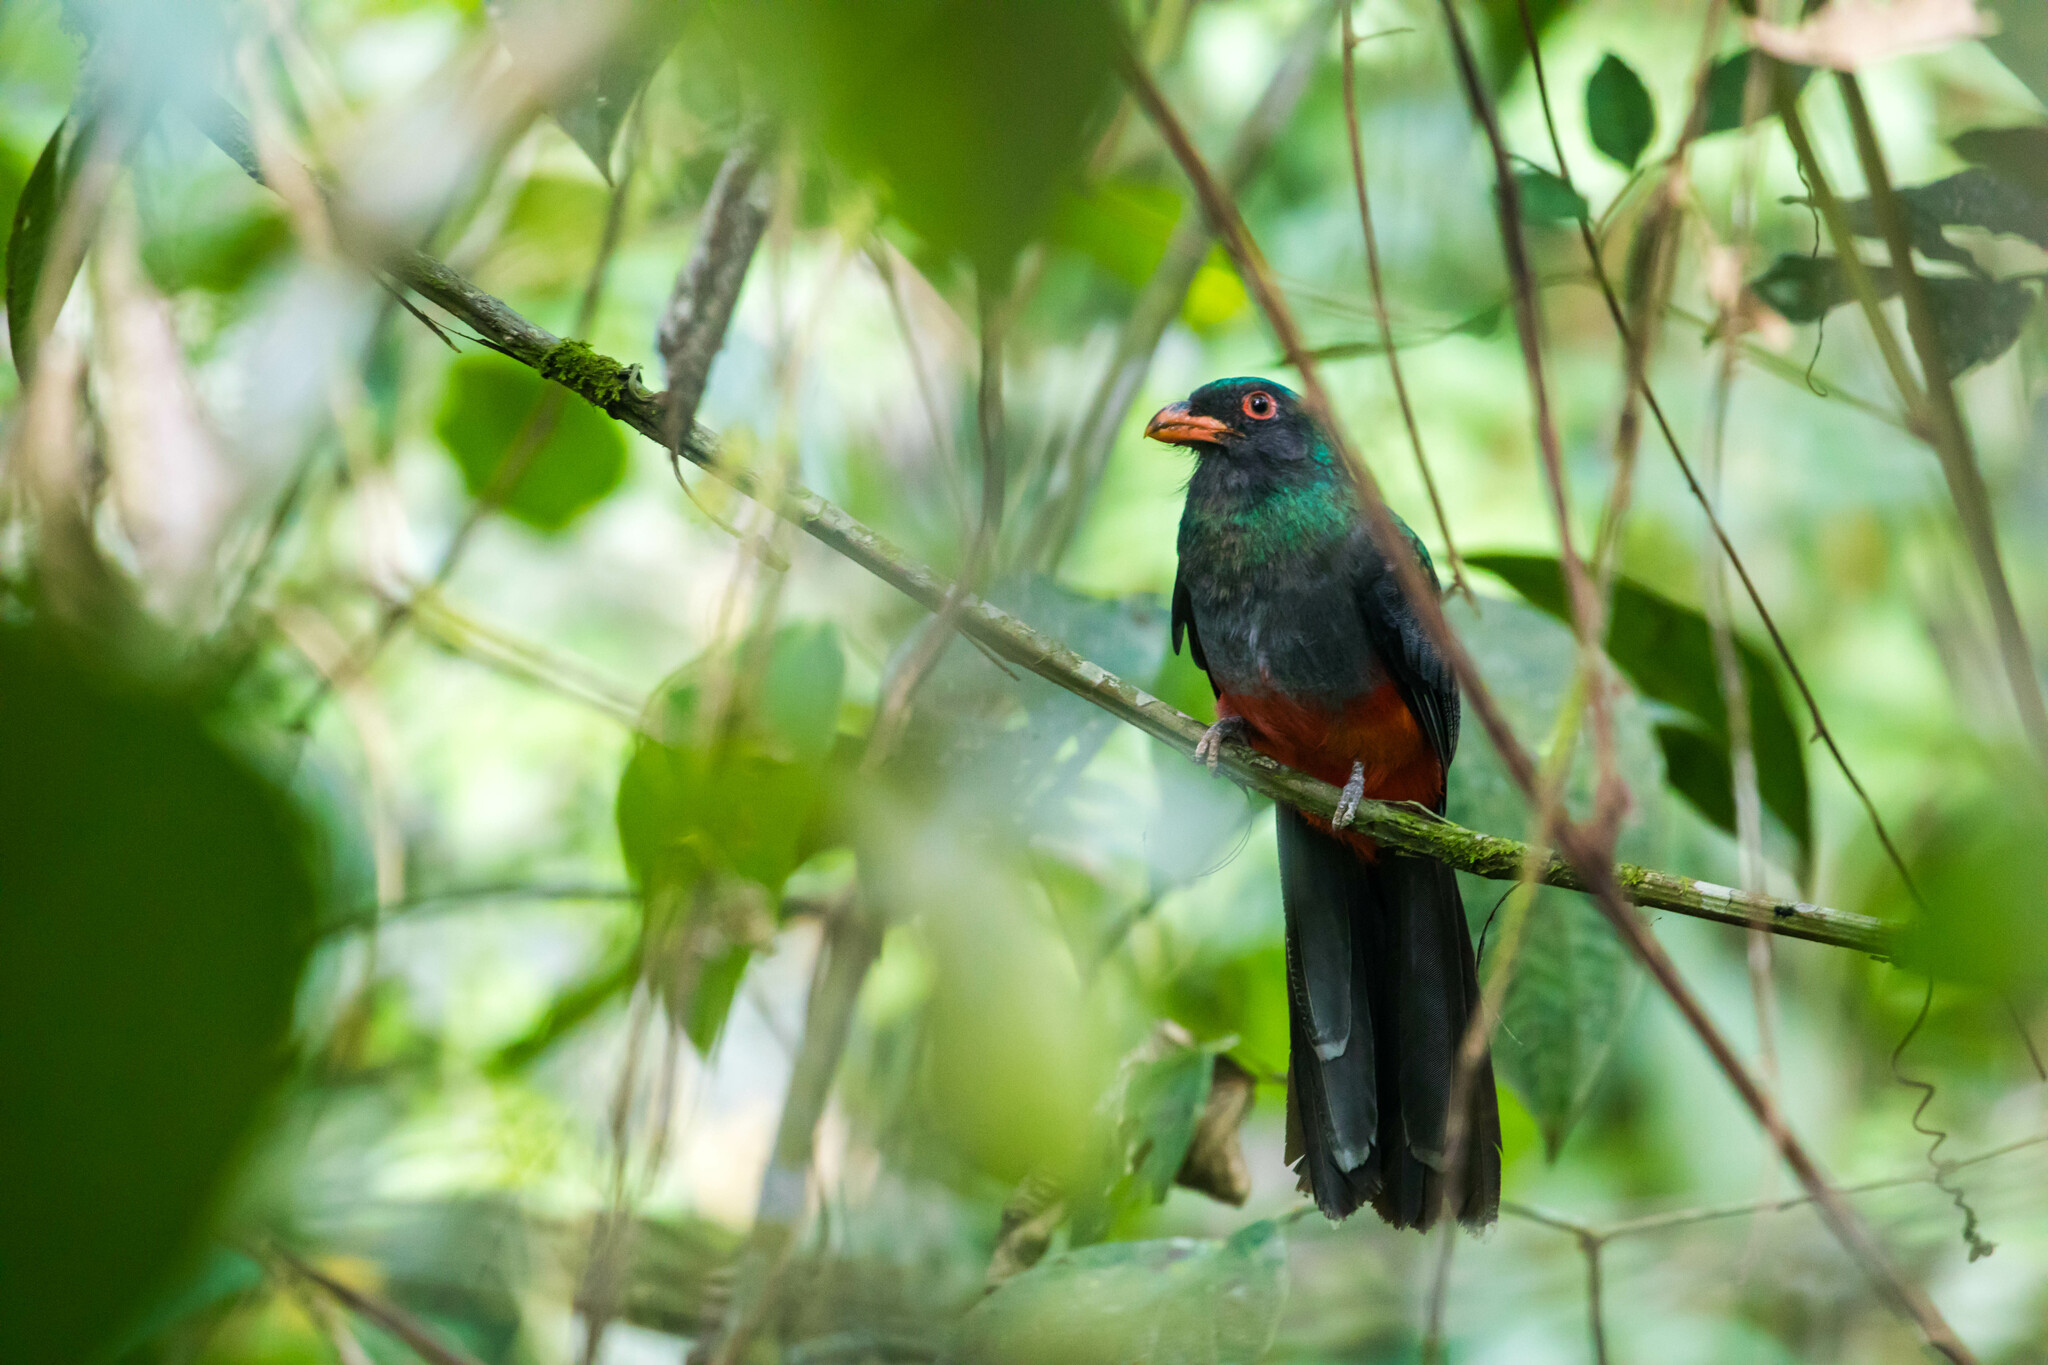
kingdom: Animalia
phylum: Chordata
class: Aves
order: Trogoniformes
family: Trogonidae
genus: Trogon
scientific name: Trogon massena
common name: Slaty-tailed trogon
